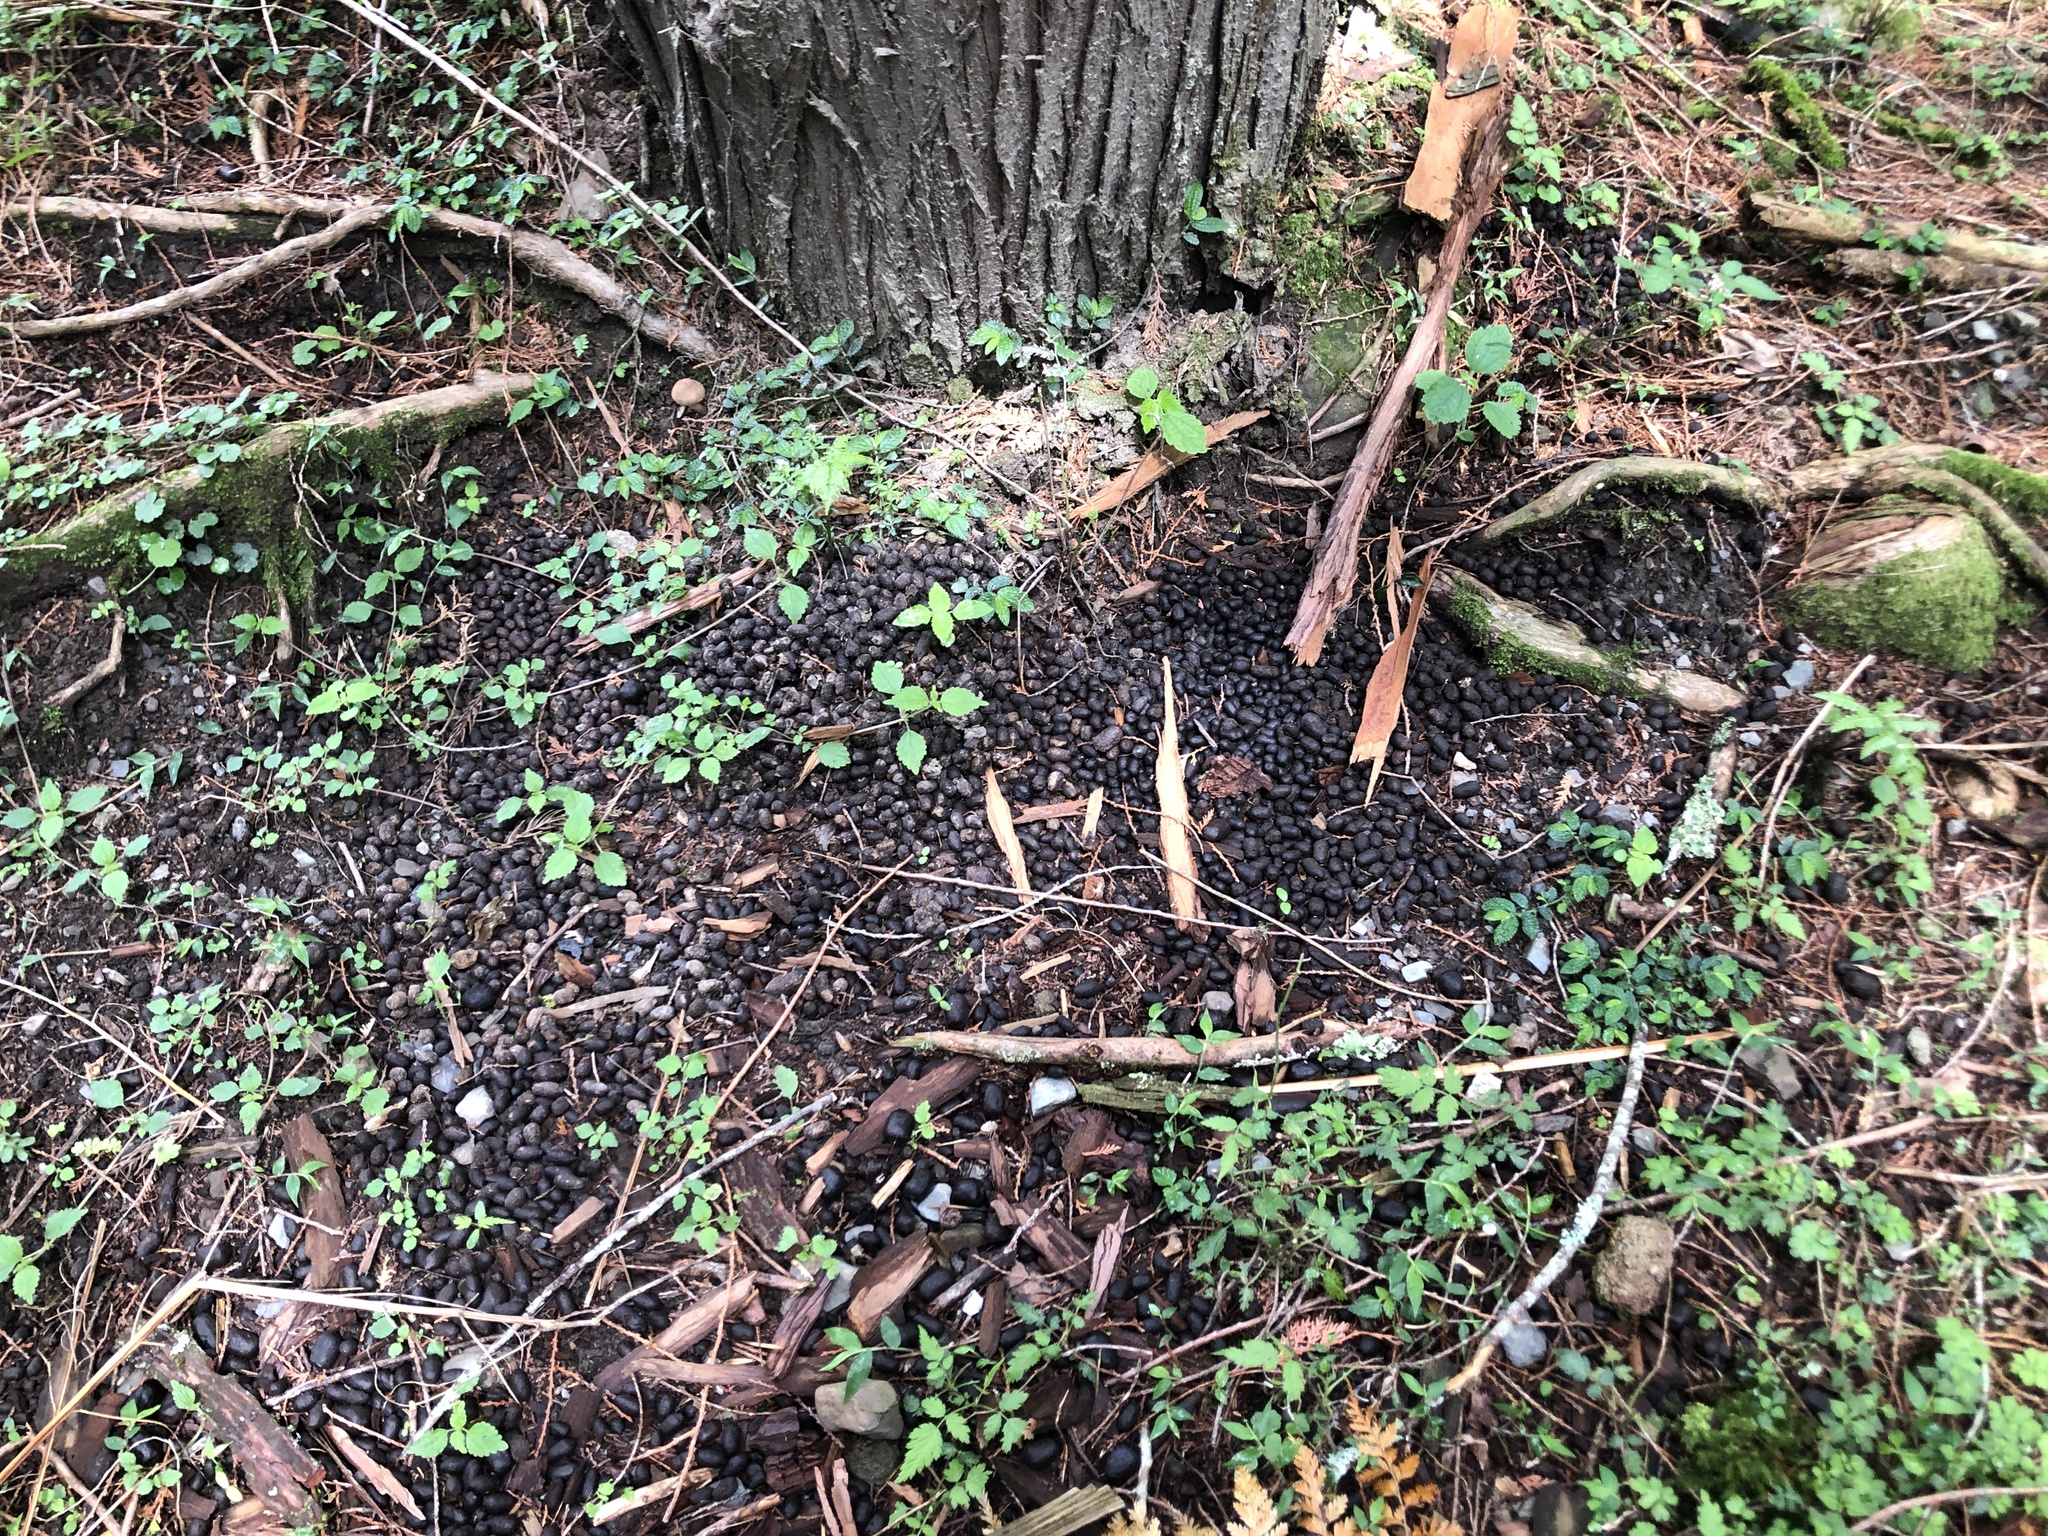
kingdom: Animalia
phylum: Chordata
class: Mammalia
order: Artiodactyla
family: Cervidae
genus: Rusa
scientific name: Rusa unicolor
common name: Sambar
